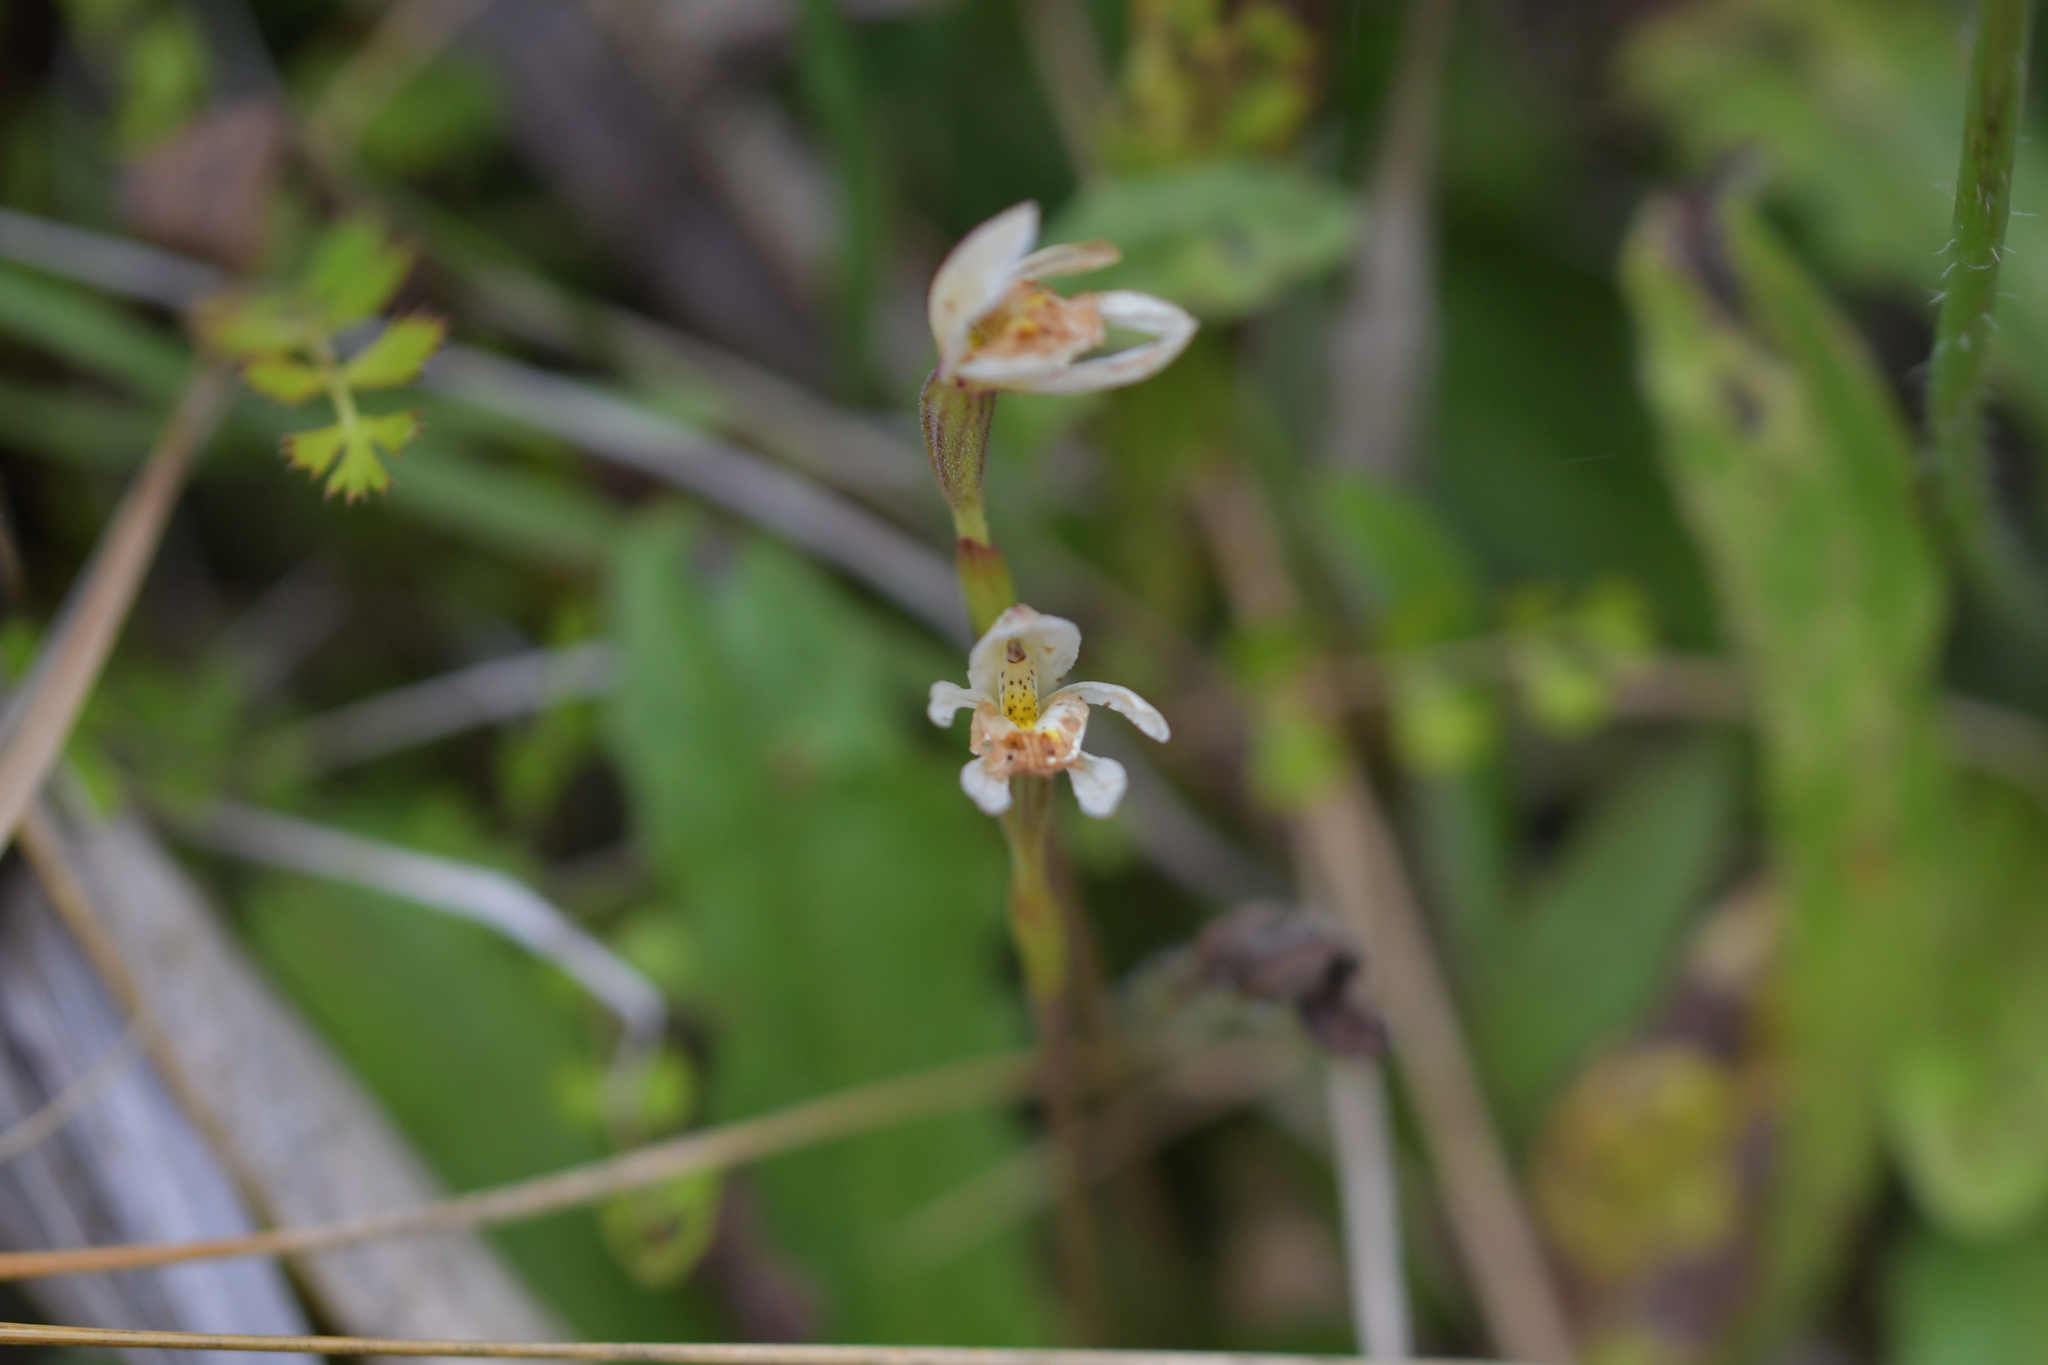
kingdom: Plantae
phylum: Tracheophyta
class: Liliopsida
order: Asparagales
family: Orchidaceae
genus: Aporostylis
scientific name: Aporostylis bifolia
